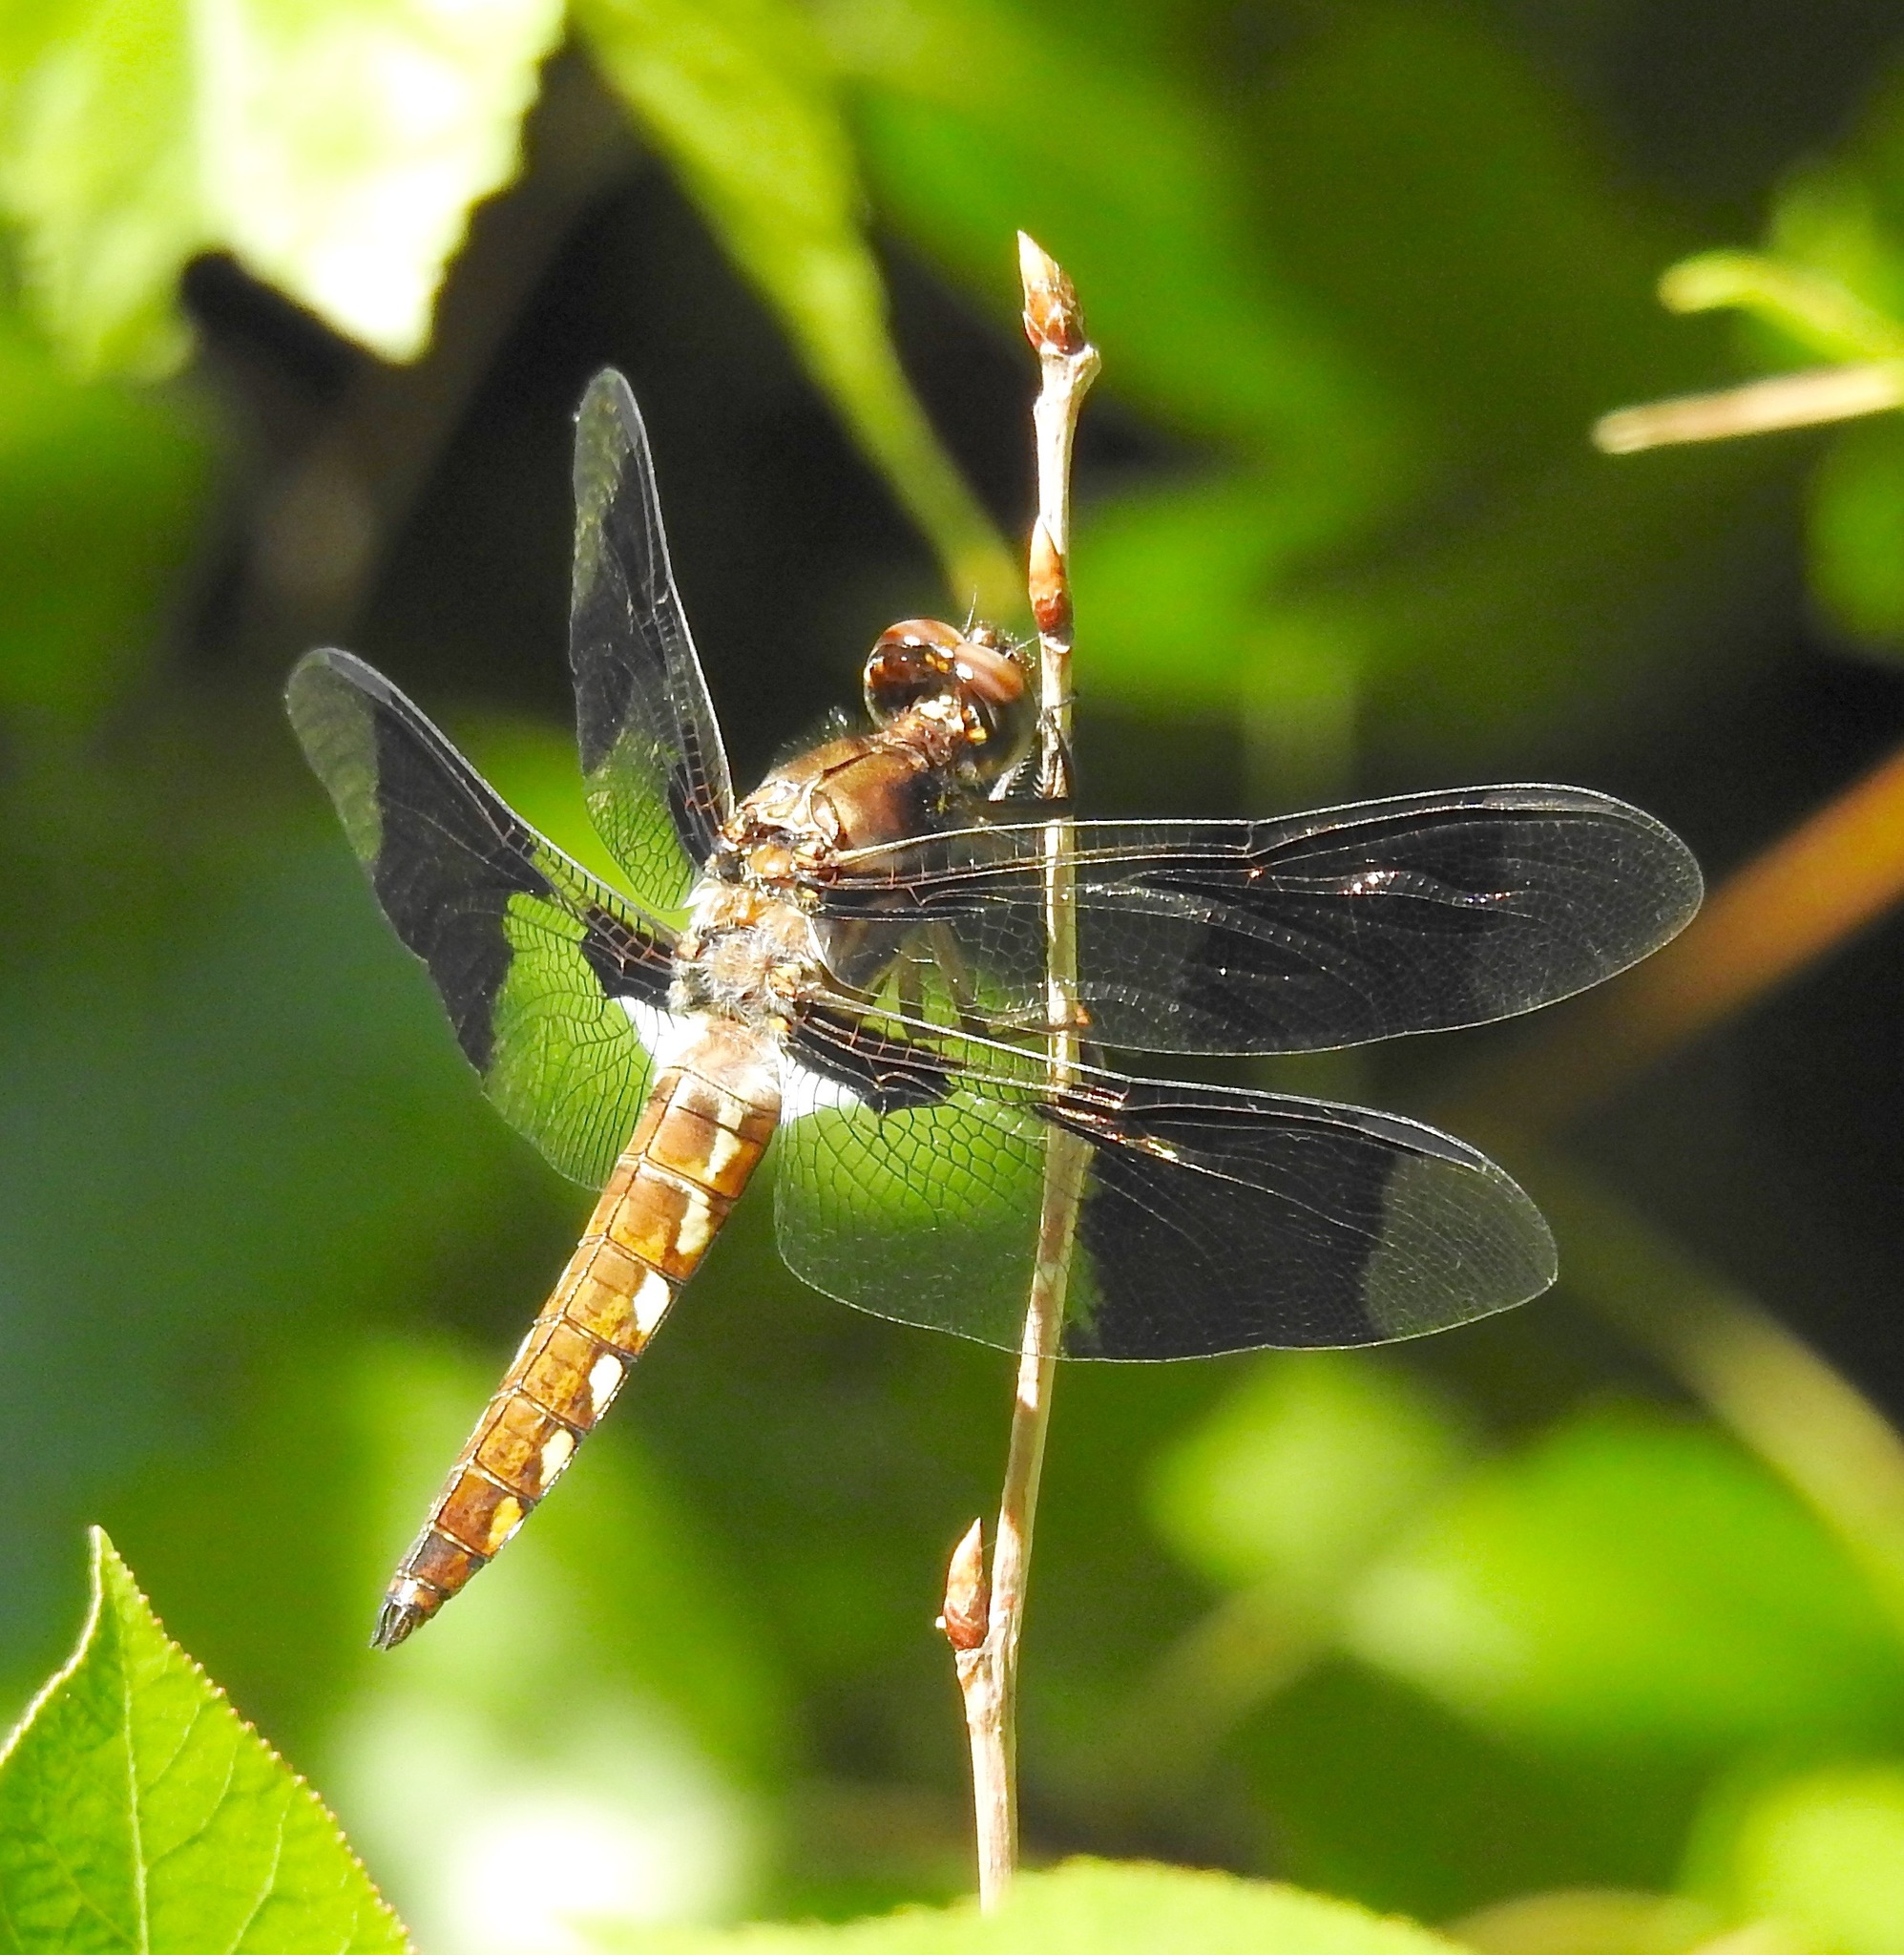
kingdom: Animalia
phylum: Arthropoda
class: Insecta
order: Odonata
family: Libellulidae
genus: Plathemis
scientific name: Plathemis lydia
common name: Common whitetail
